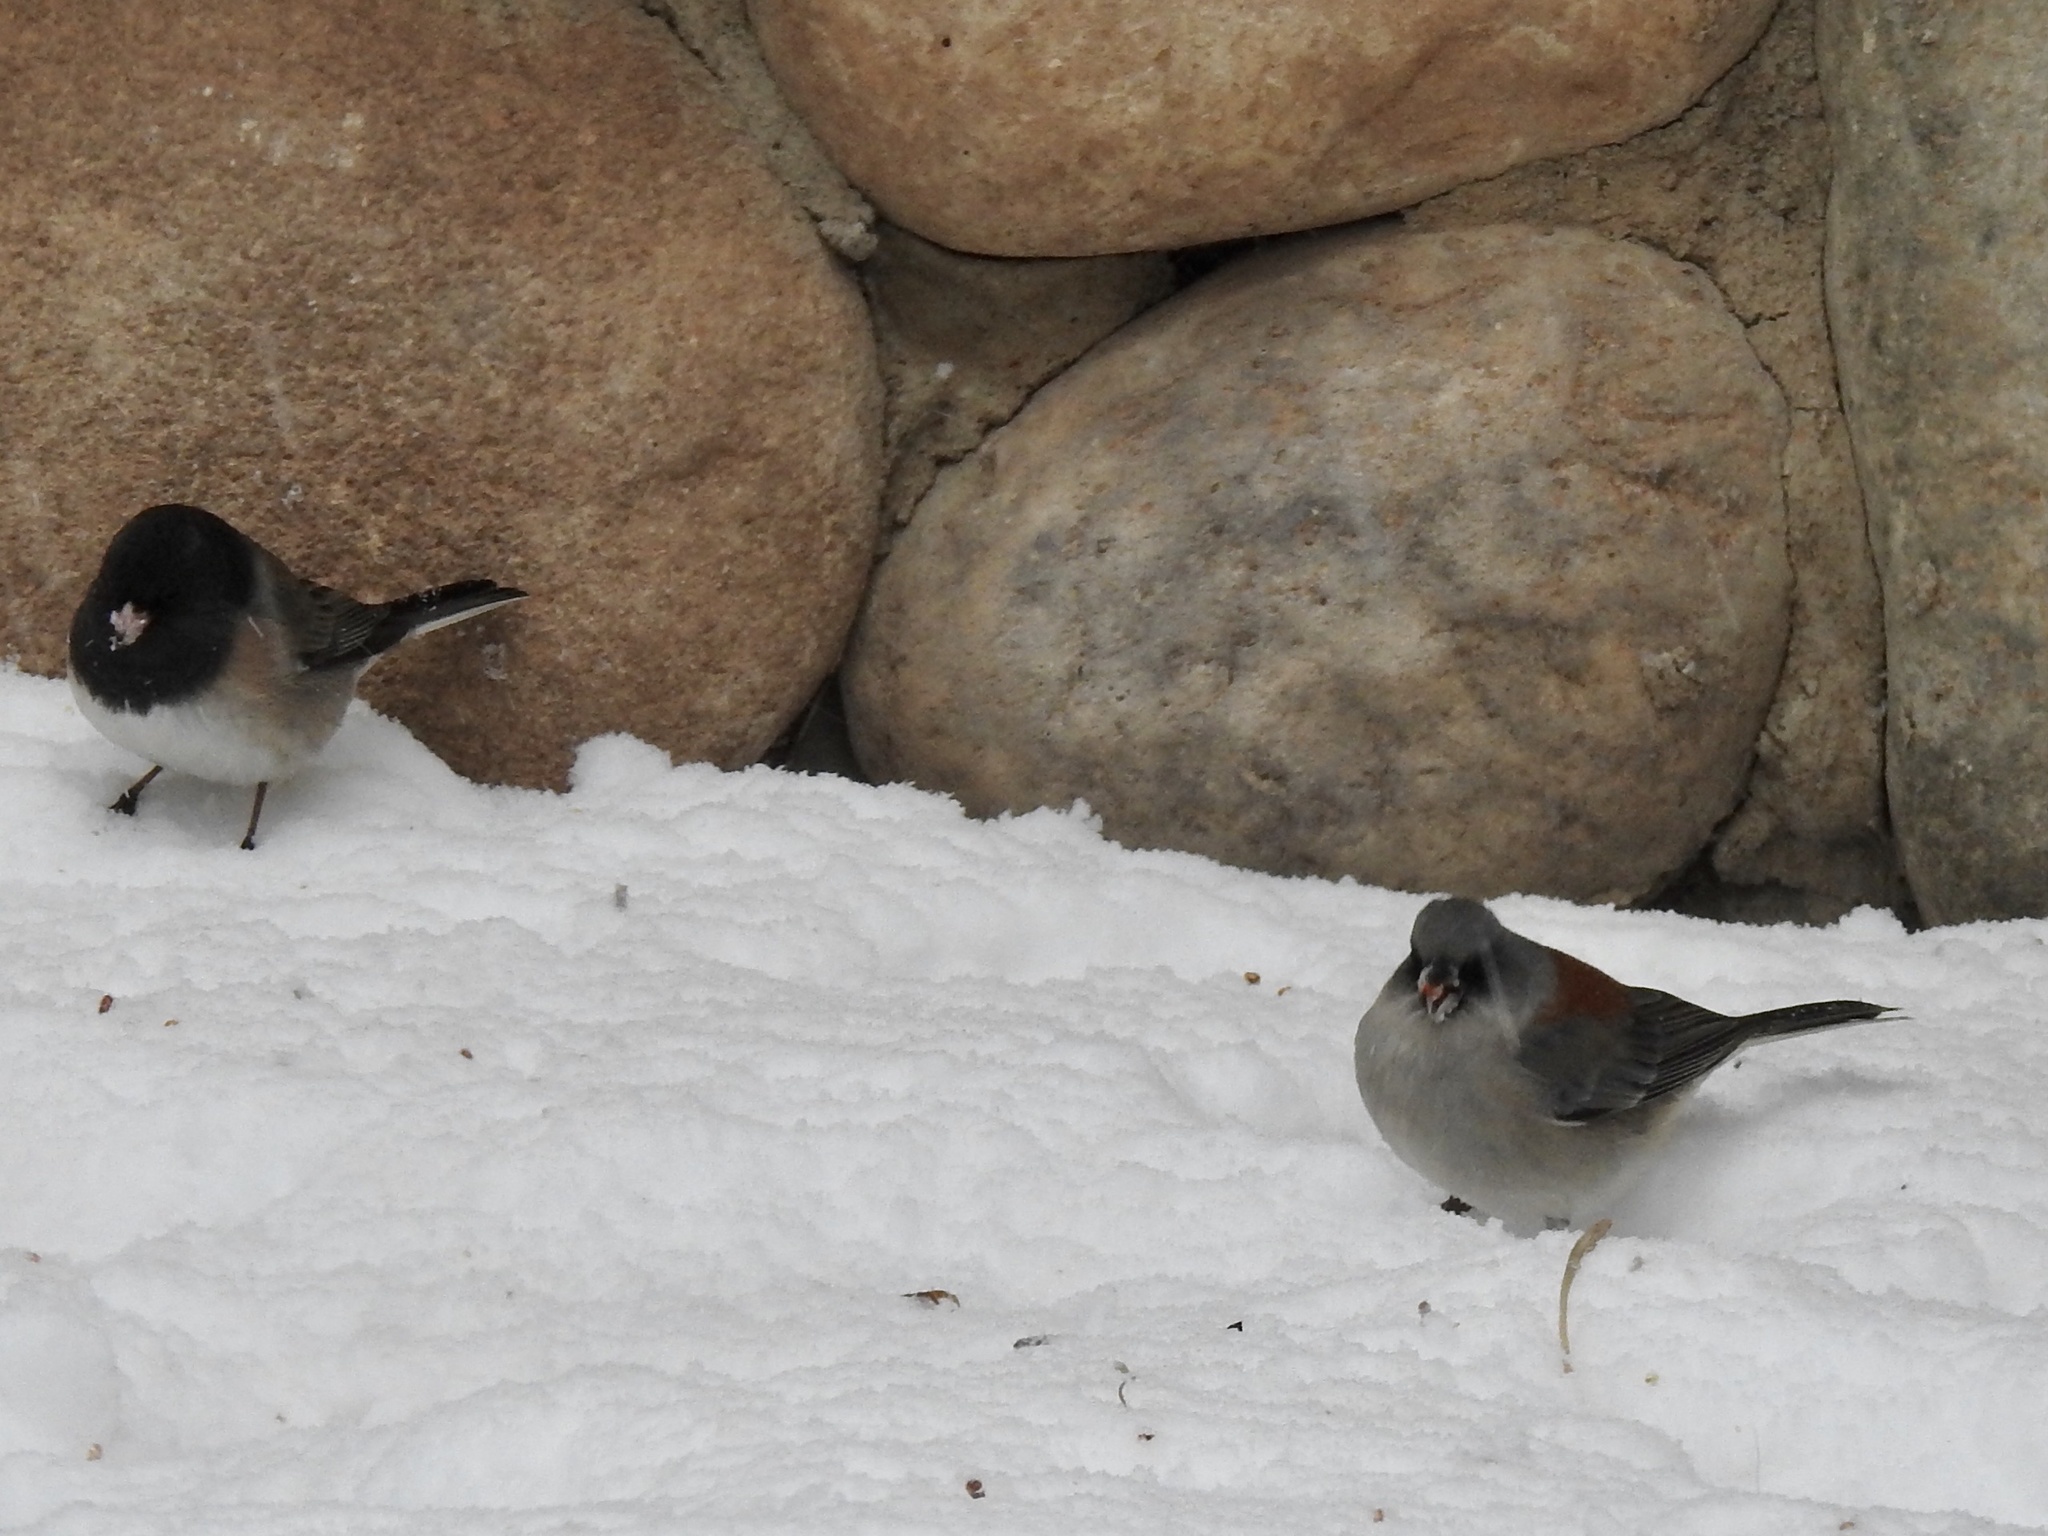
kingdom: Animalia
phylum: Chordata
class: Aves
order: Passeriformes
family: Passerellidae
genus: Junco
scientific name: Junco hyemalis
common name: Dark-eyed junco
